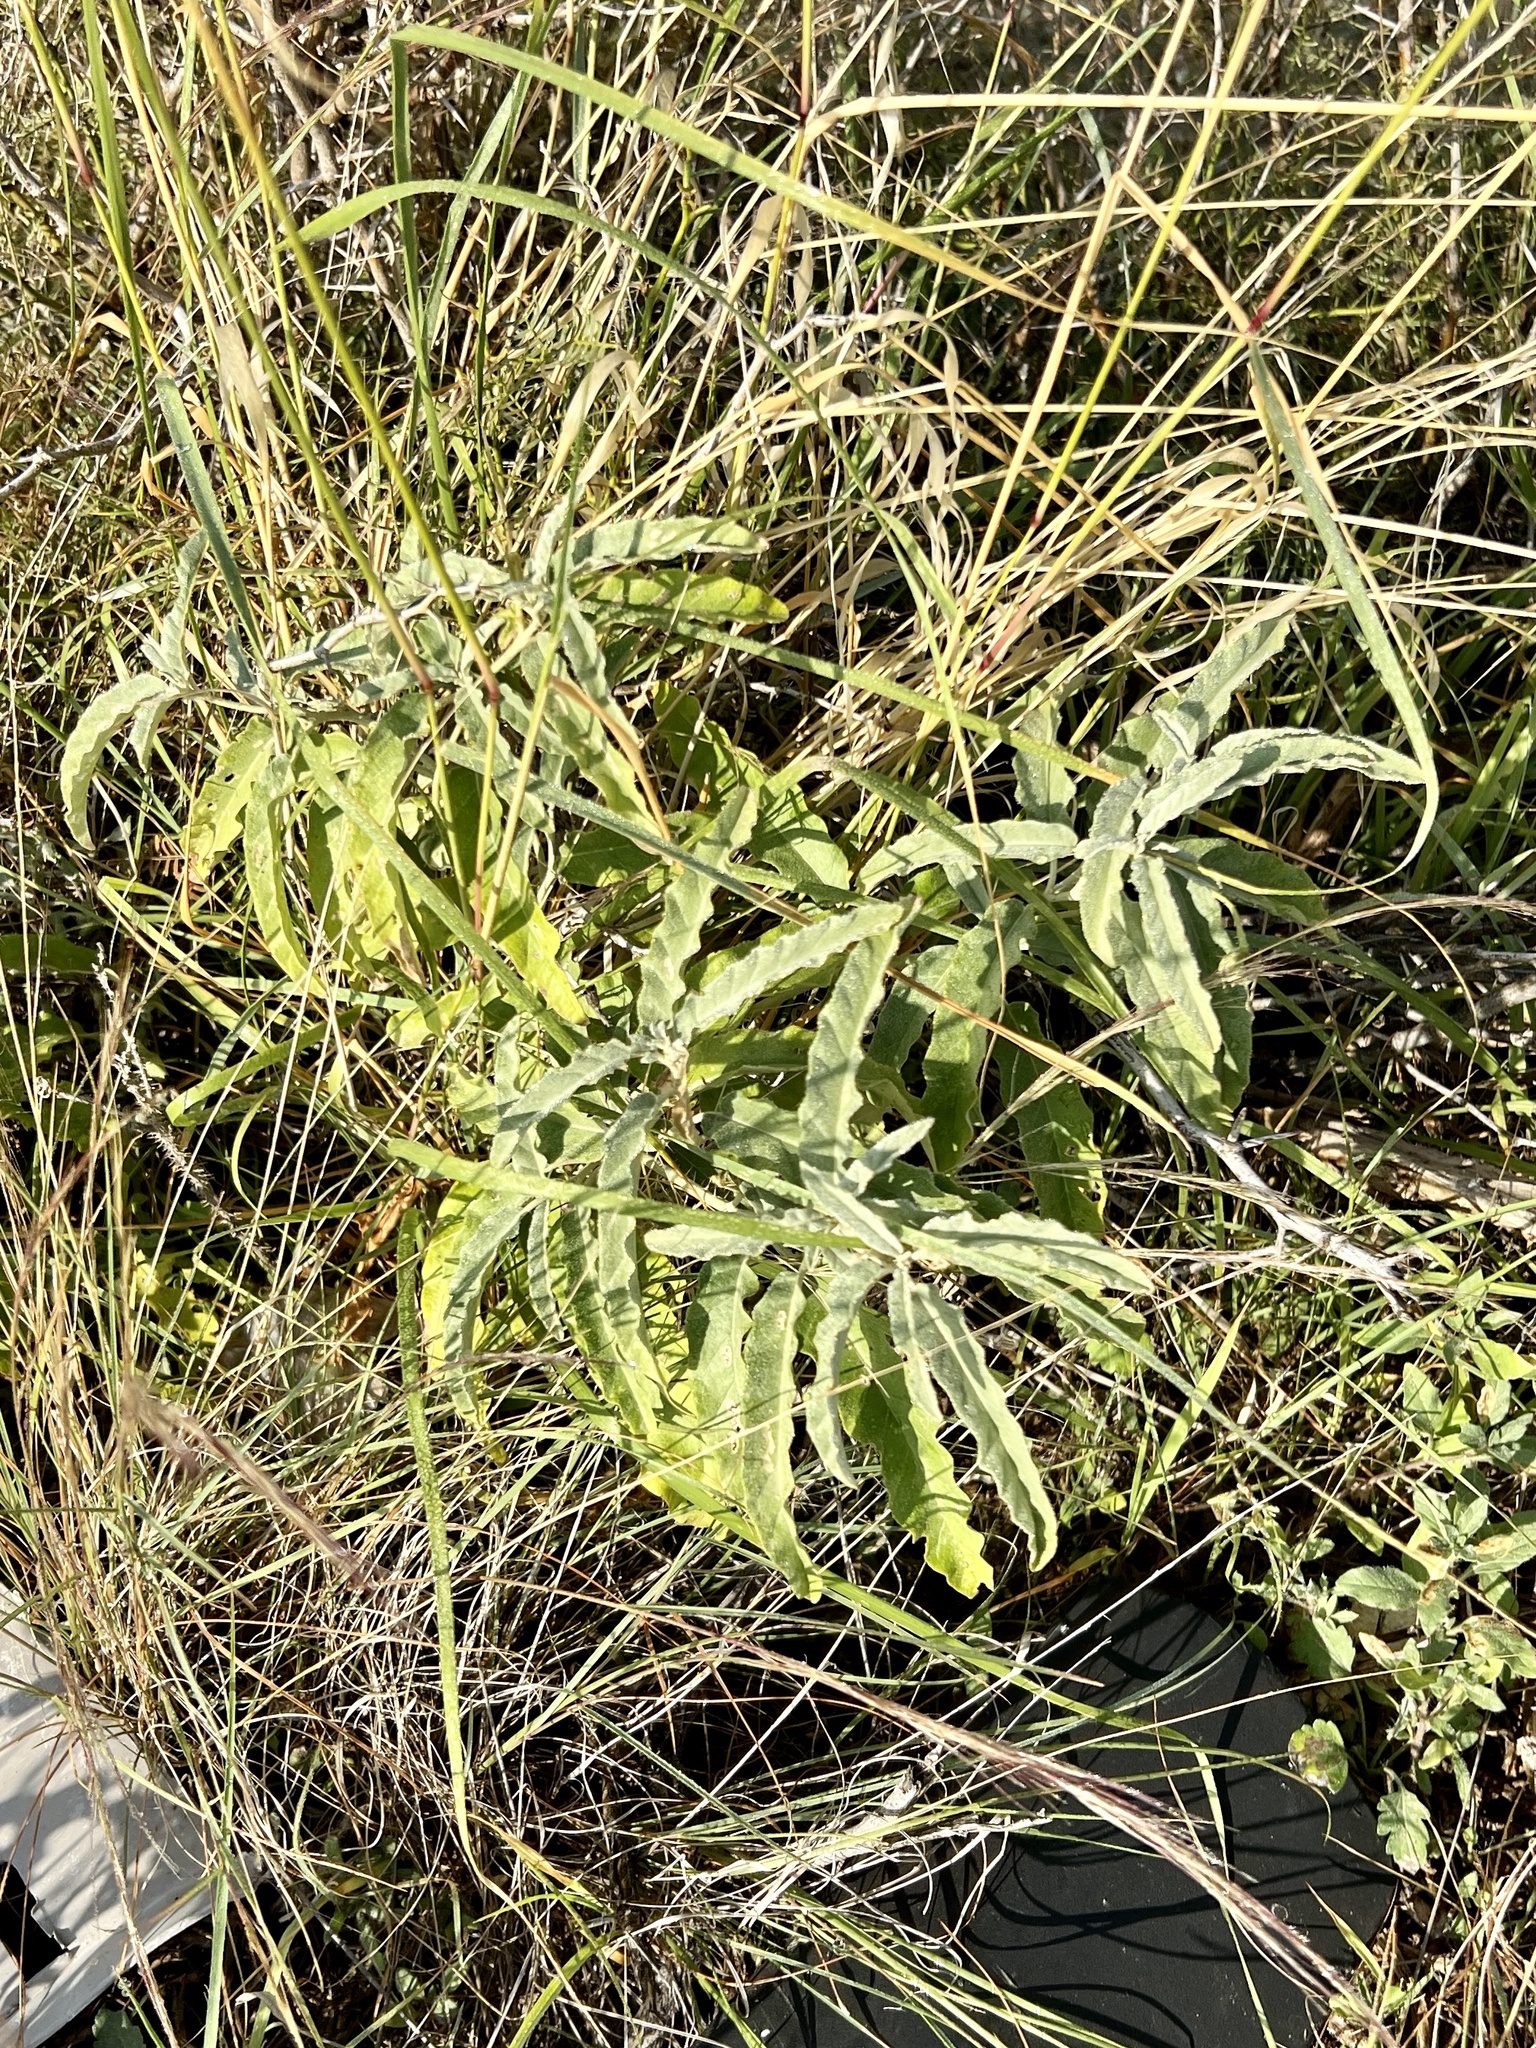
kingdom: Plantae
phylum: Tracheophyta
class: Magnoliopsida
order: Solanales
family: Solanaceae
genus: Solanum
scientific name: Solanum elaeagnifolium
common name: Silverleaf nightshade
